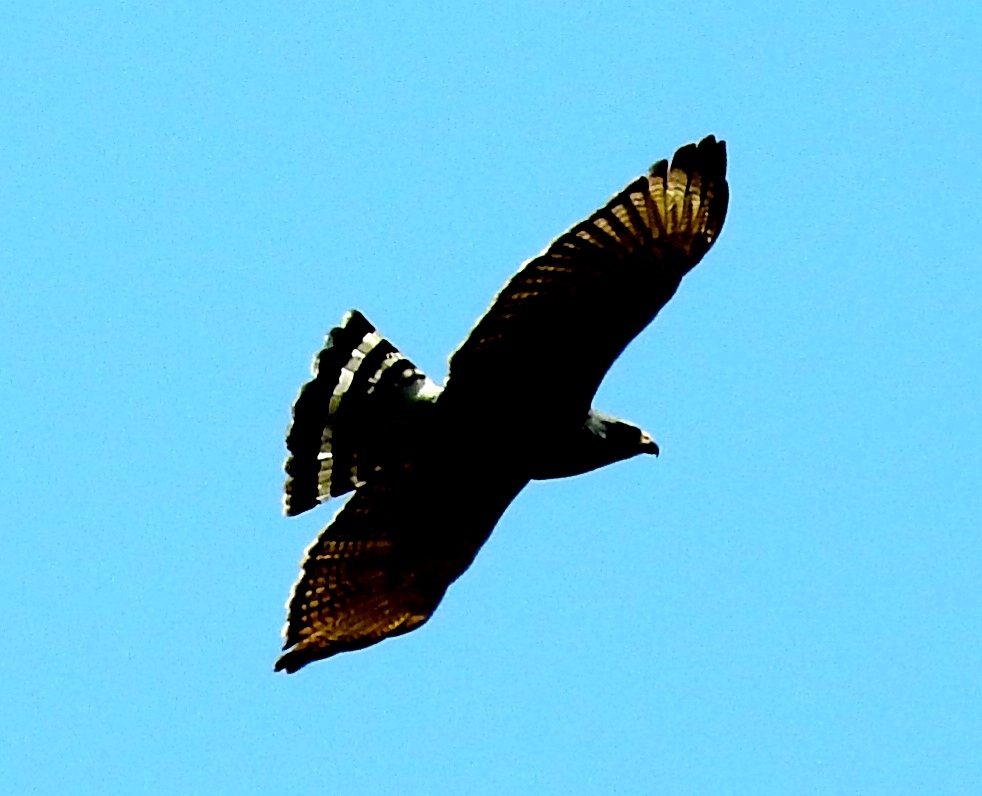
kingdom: Animalia
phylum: Chordata
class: Aves
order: Accipitriformes
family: Accipitridae
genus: Buteo
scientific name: Buteo platypterus
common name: Broad-winged hawk
